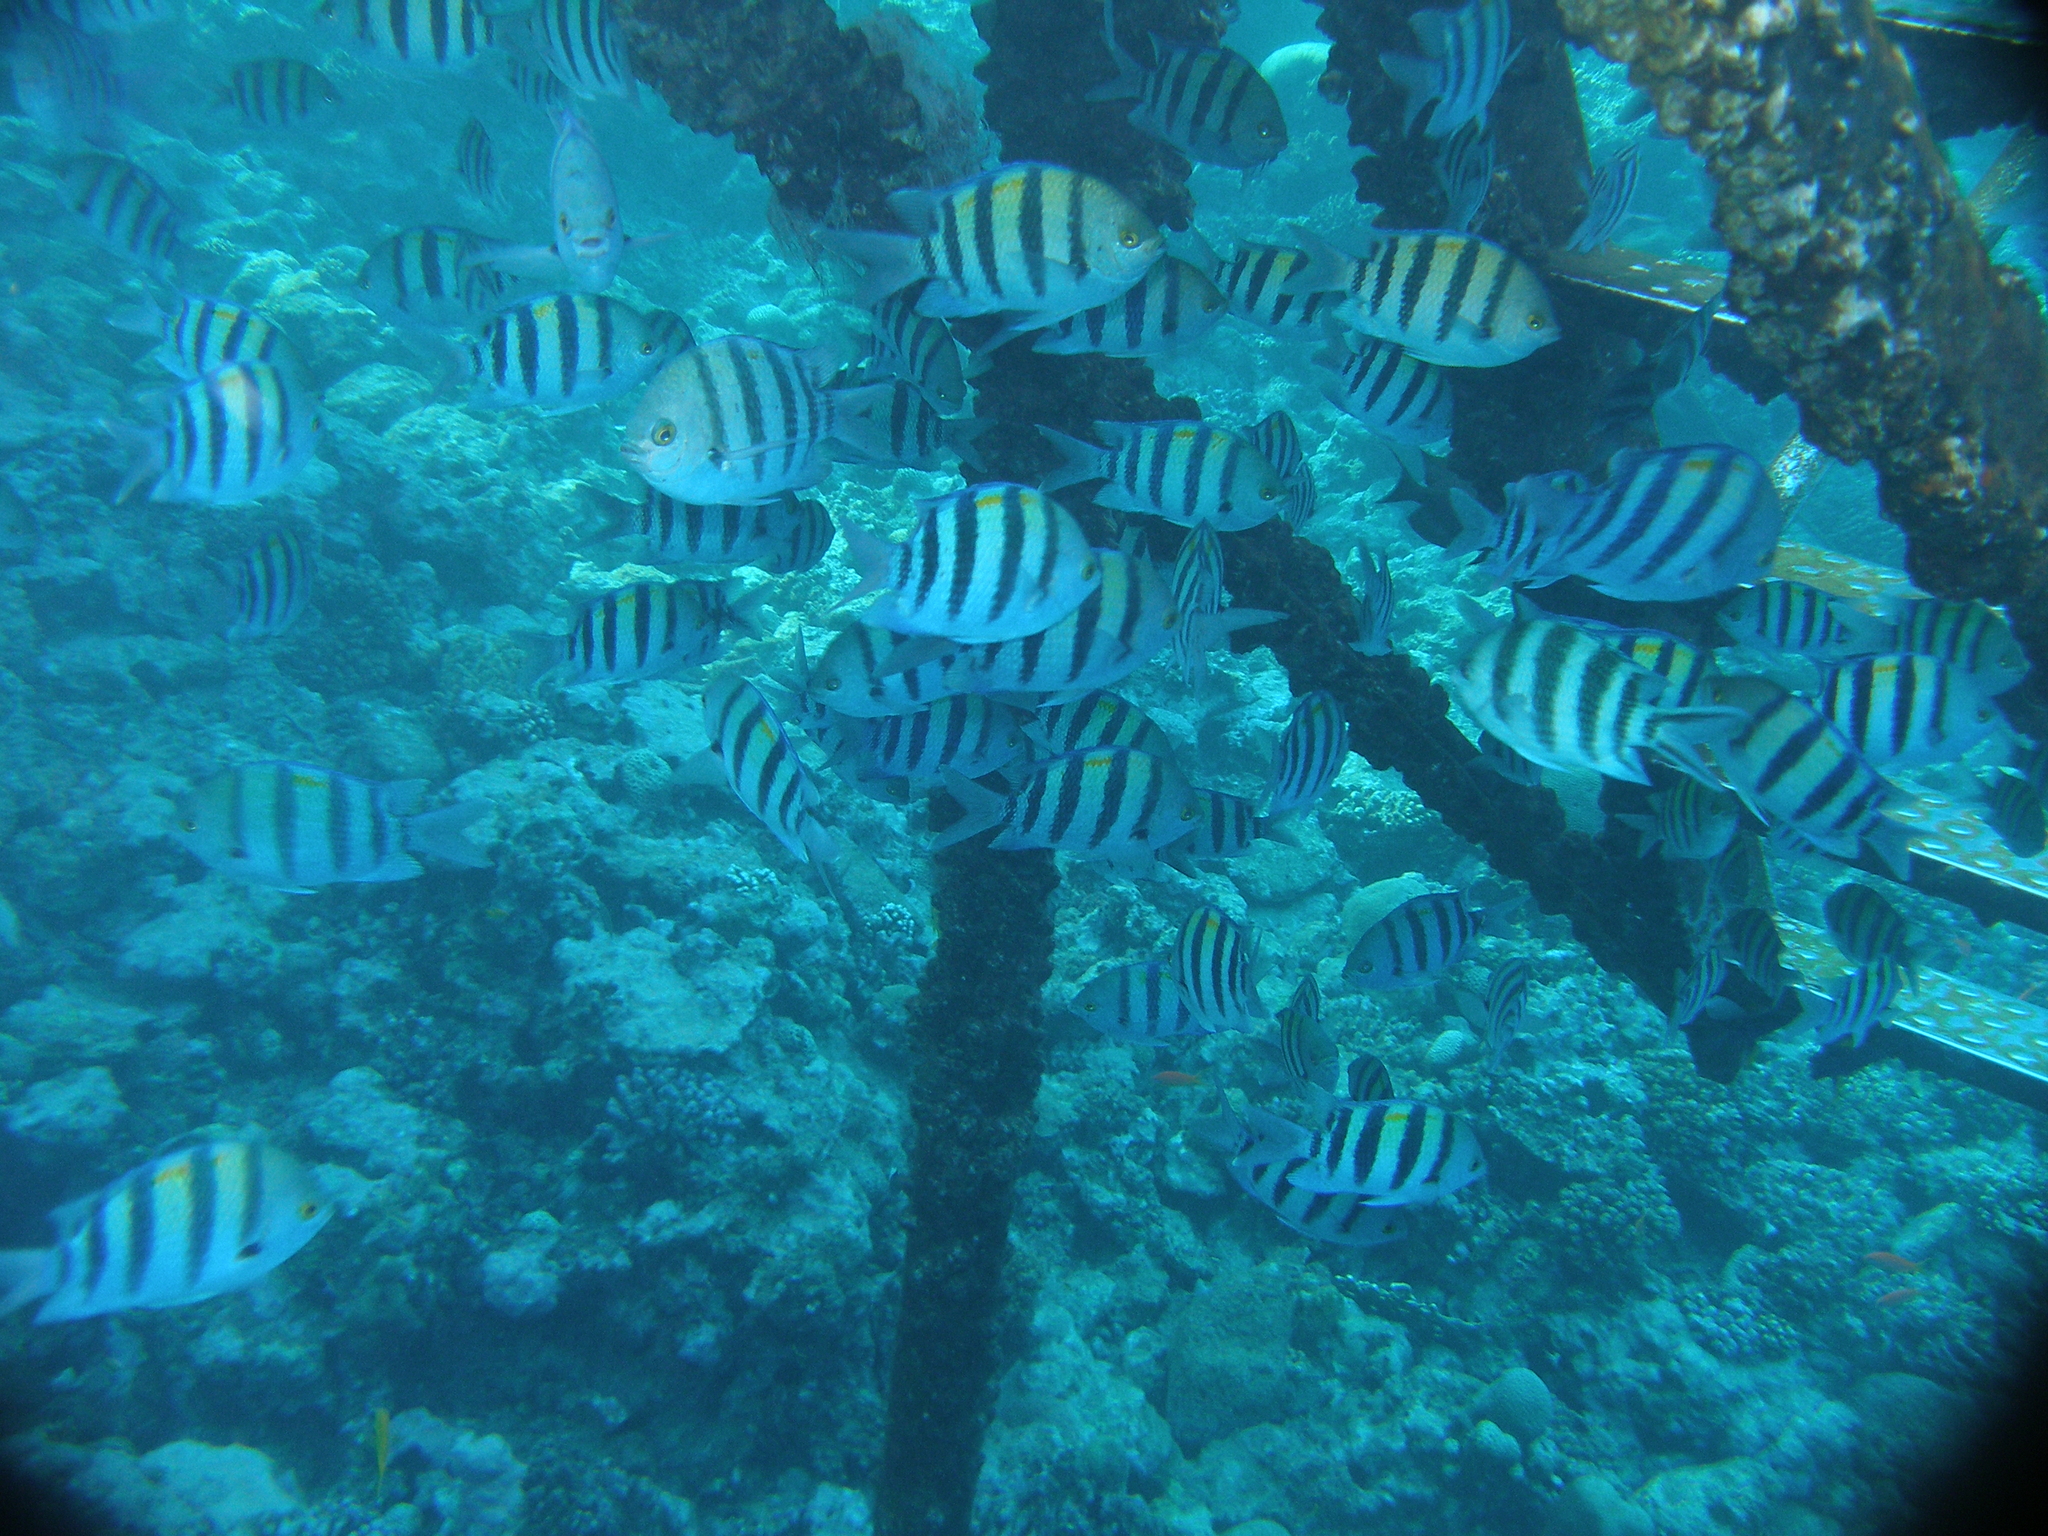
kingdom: Animalia
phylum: Chordata
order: Perciformes
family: Pomacentridae
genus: Abudefduf
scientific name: Abudefduf vaigiensis
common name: Indo-pacific sergeant
